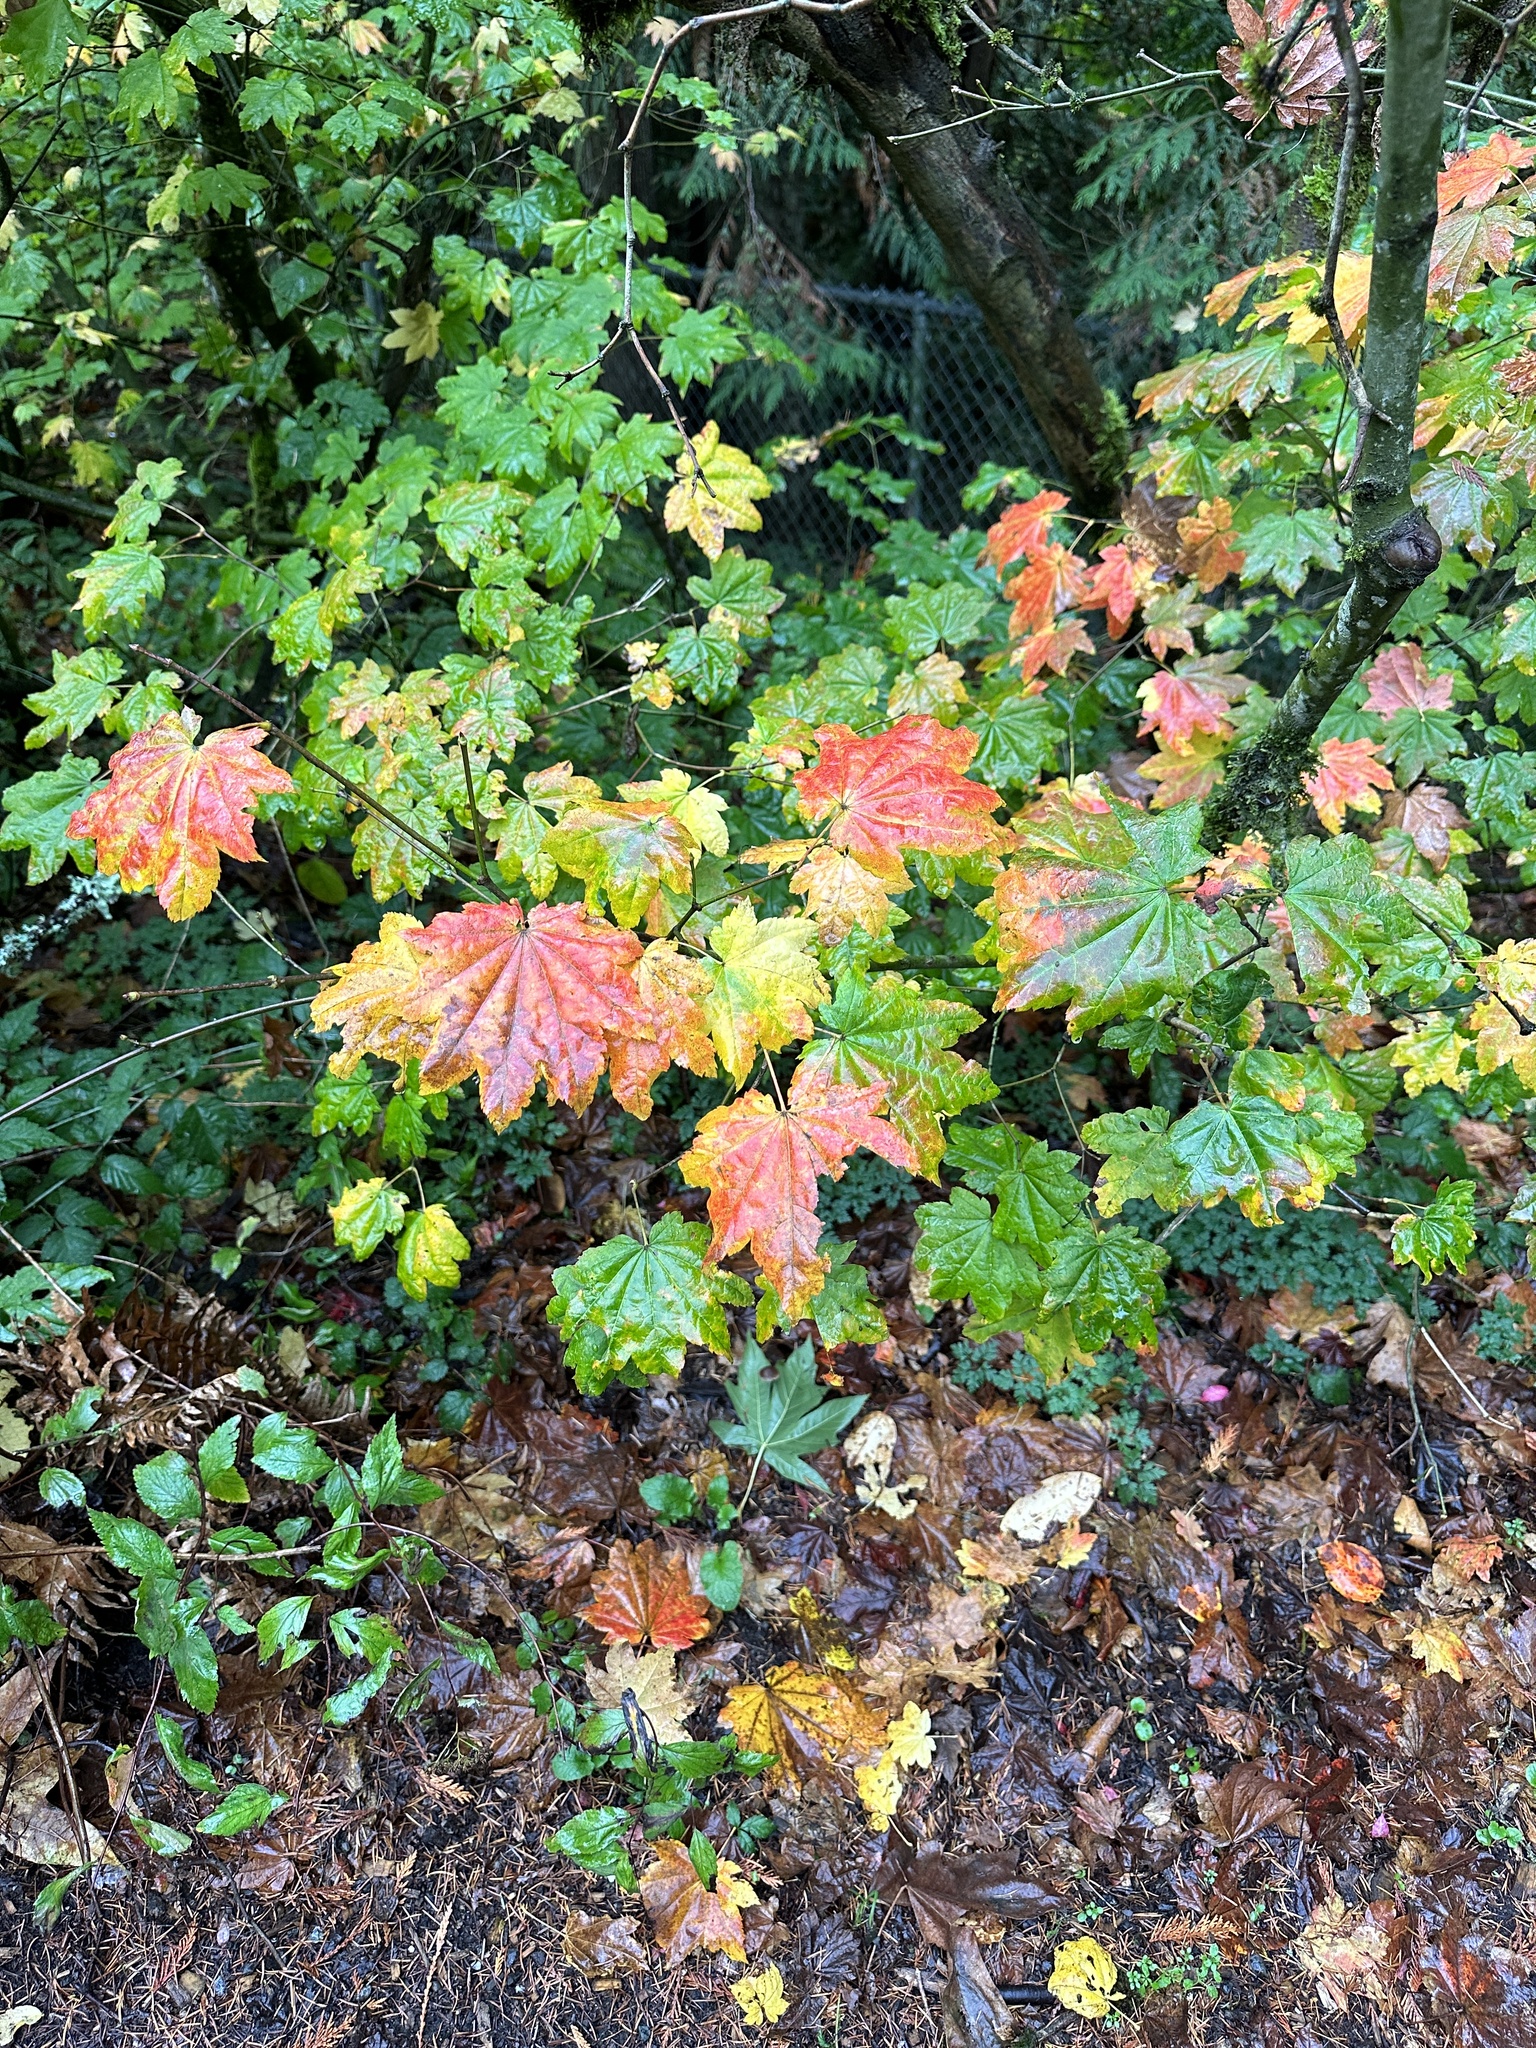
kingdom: Plantae
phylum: Tracheophyta
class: Magnoliopsida
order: Sapindales
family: Sapindaceae
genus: Acer
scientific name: Acer circinatum
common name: Vine maple
